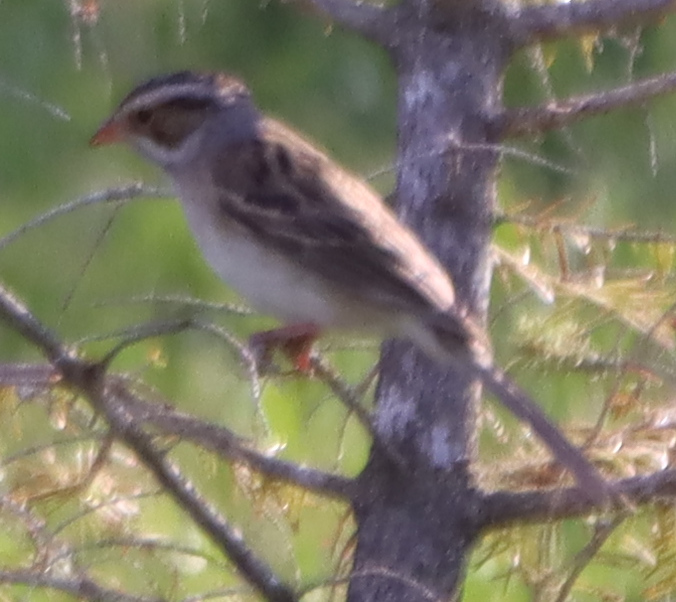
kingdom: Animalia
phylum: Chordata
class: Aves
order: Passeriformes
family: Passerellidae
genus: Spizella
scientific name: Spizella pallida
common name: Clay-colored sparrow
